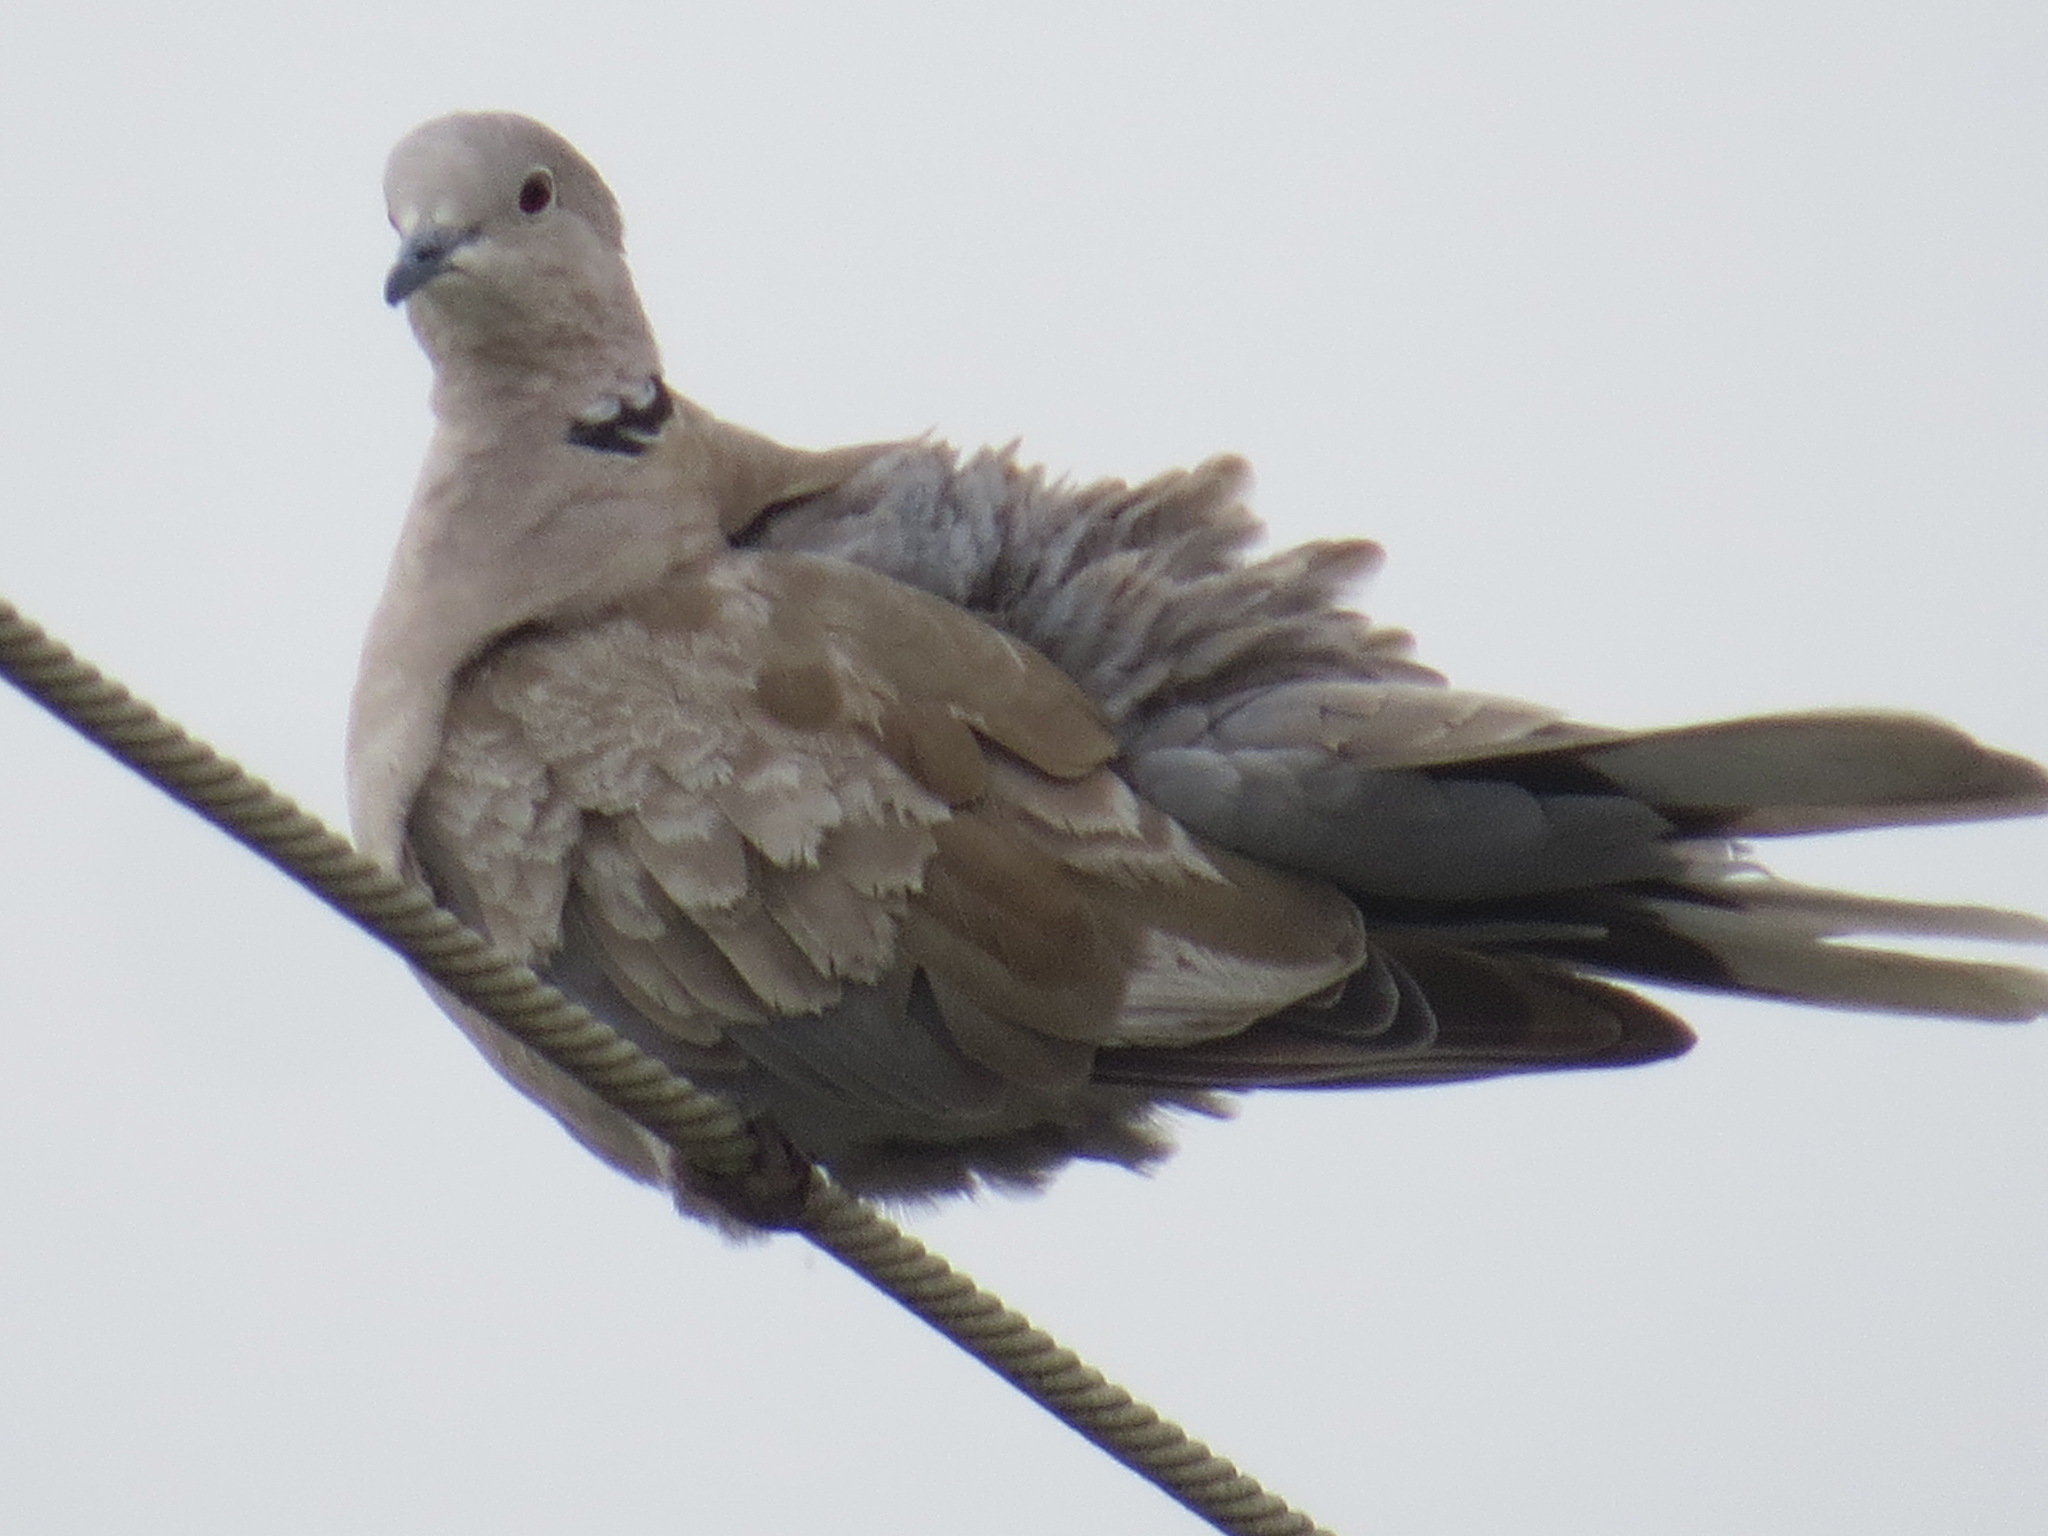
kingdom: Animalia
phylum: Chordata
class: Aves
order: Columbiformes
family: Columbidae
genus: Streptopelia
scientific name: Streptopelia decaocto
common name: Eurasian collared dove
